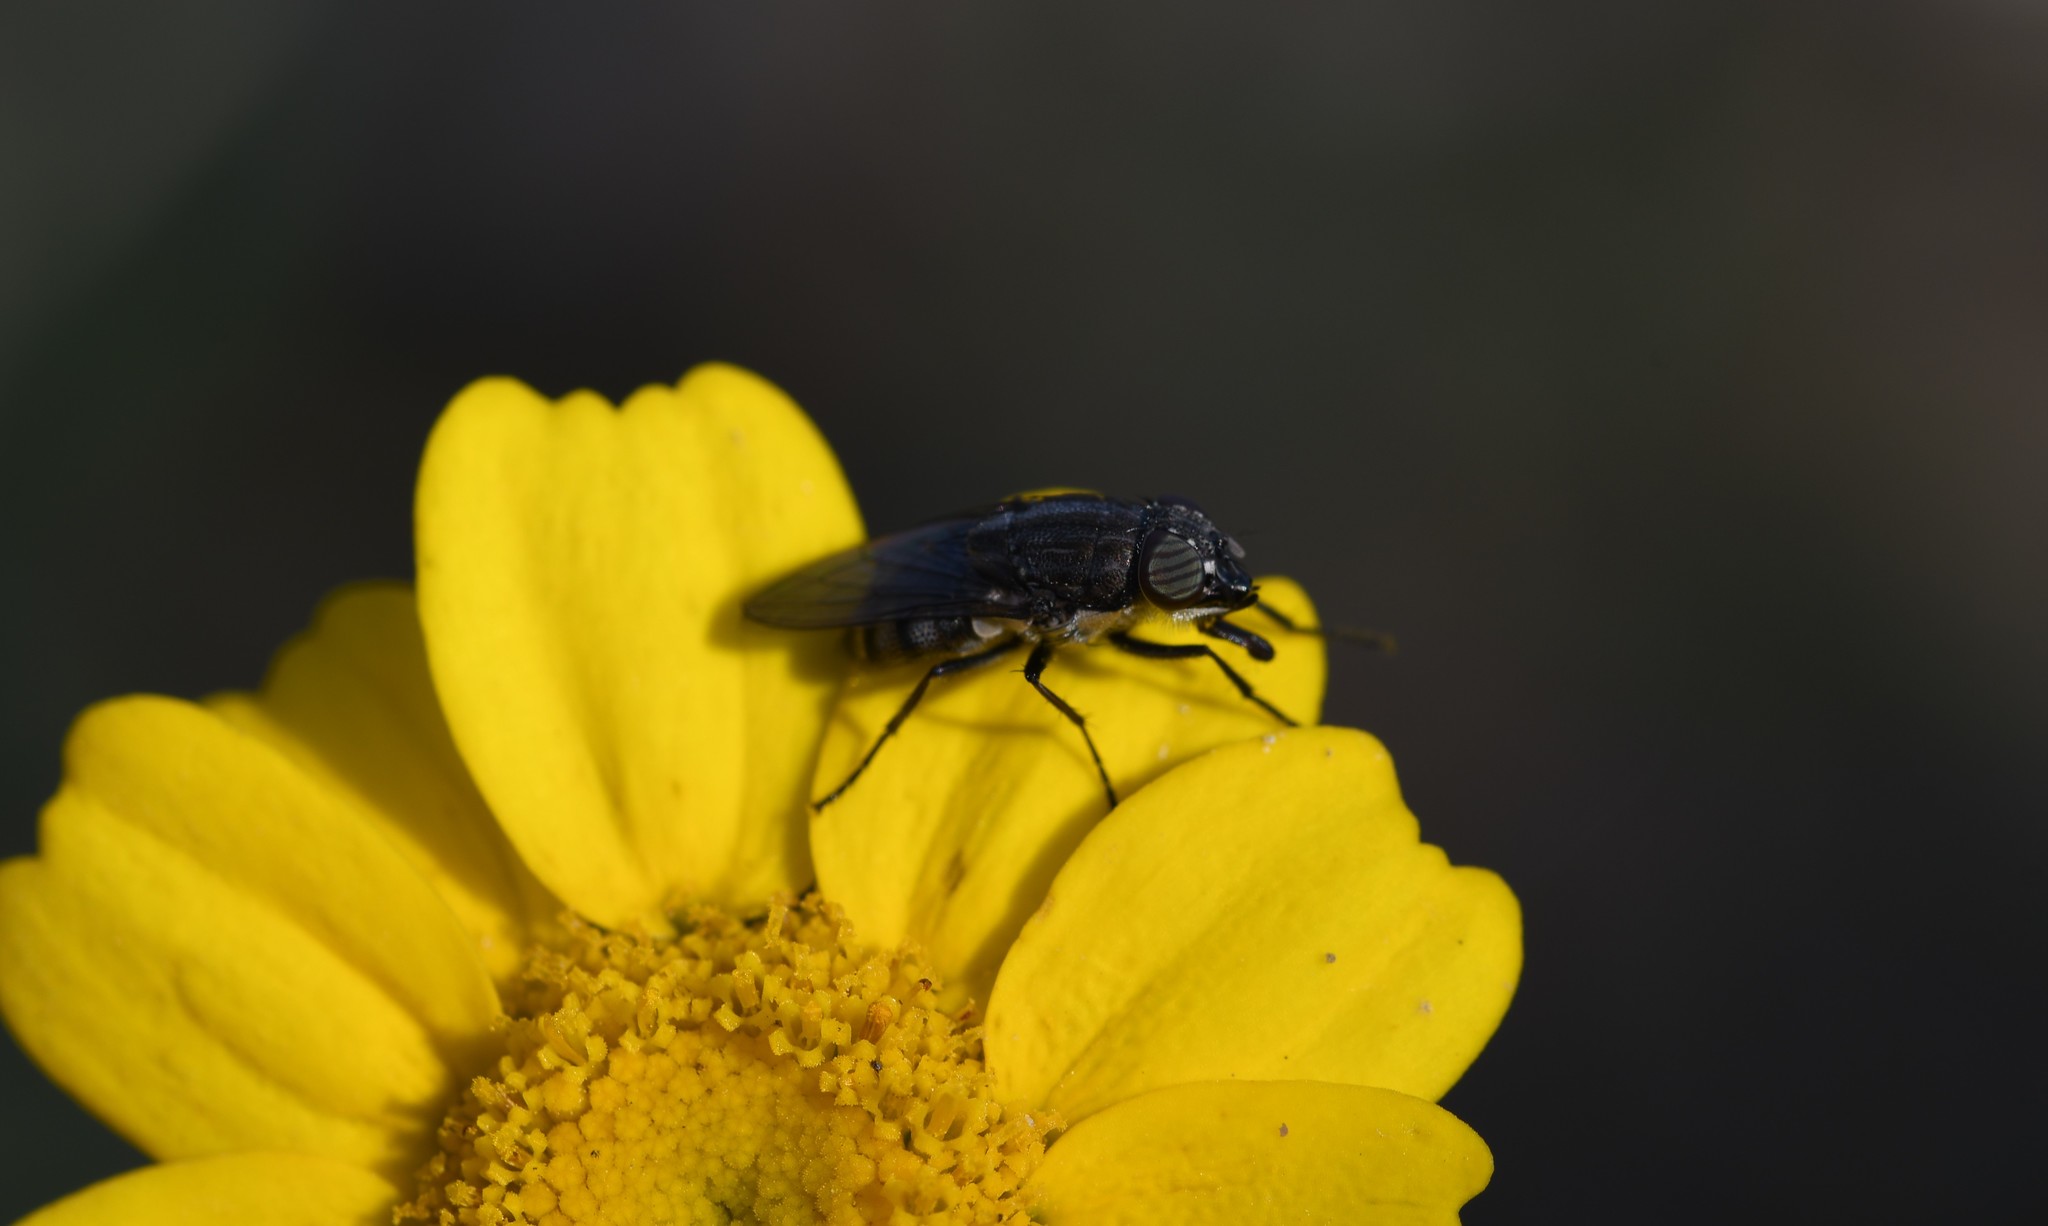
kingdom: Animalia
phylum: Arthropoda
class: Insecta
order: Diptera
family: Calliphoridae
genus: Stomorhina
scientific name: Stomorhina lunata
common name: Locust blowfly
